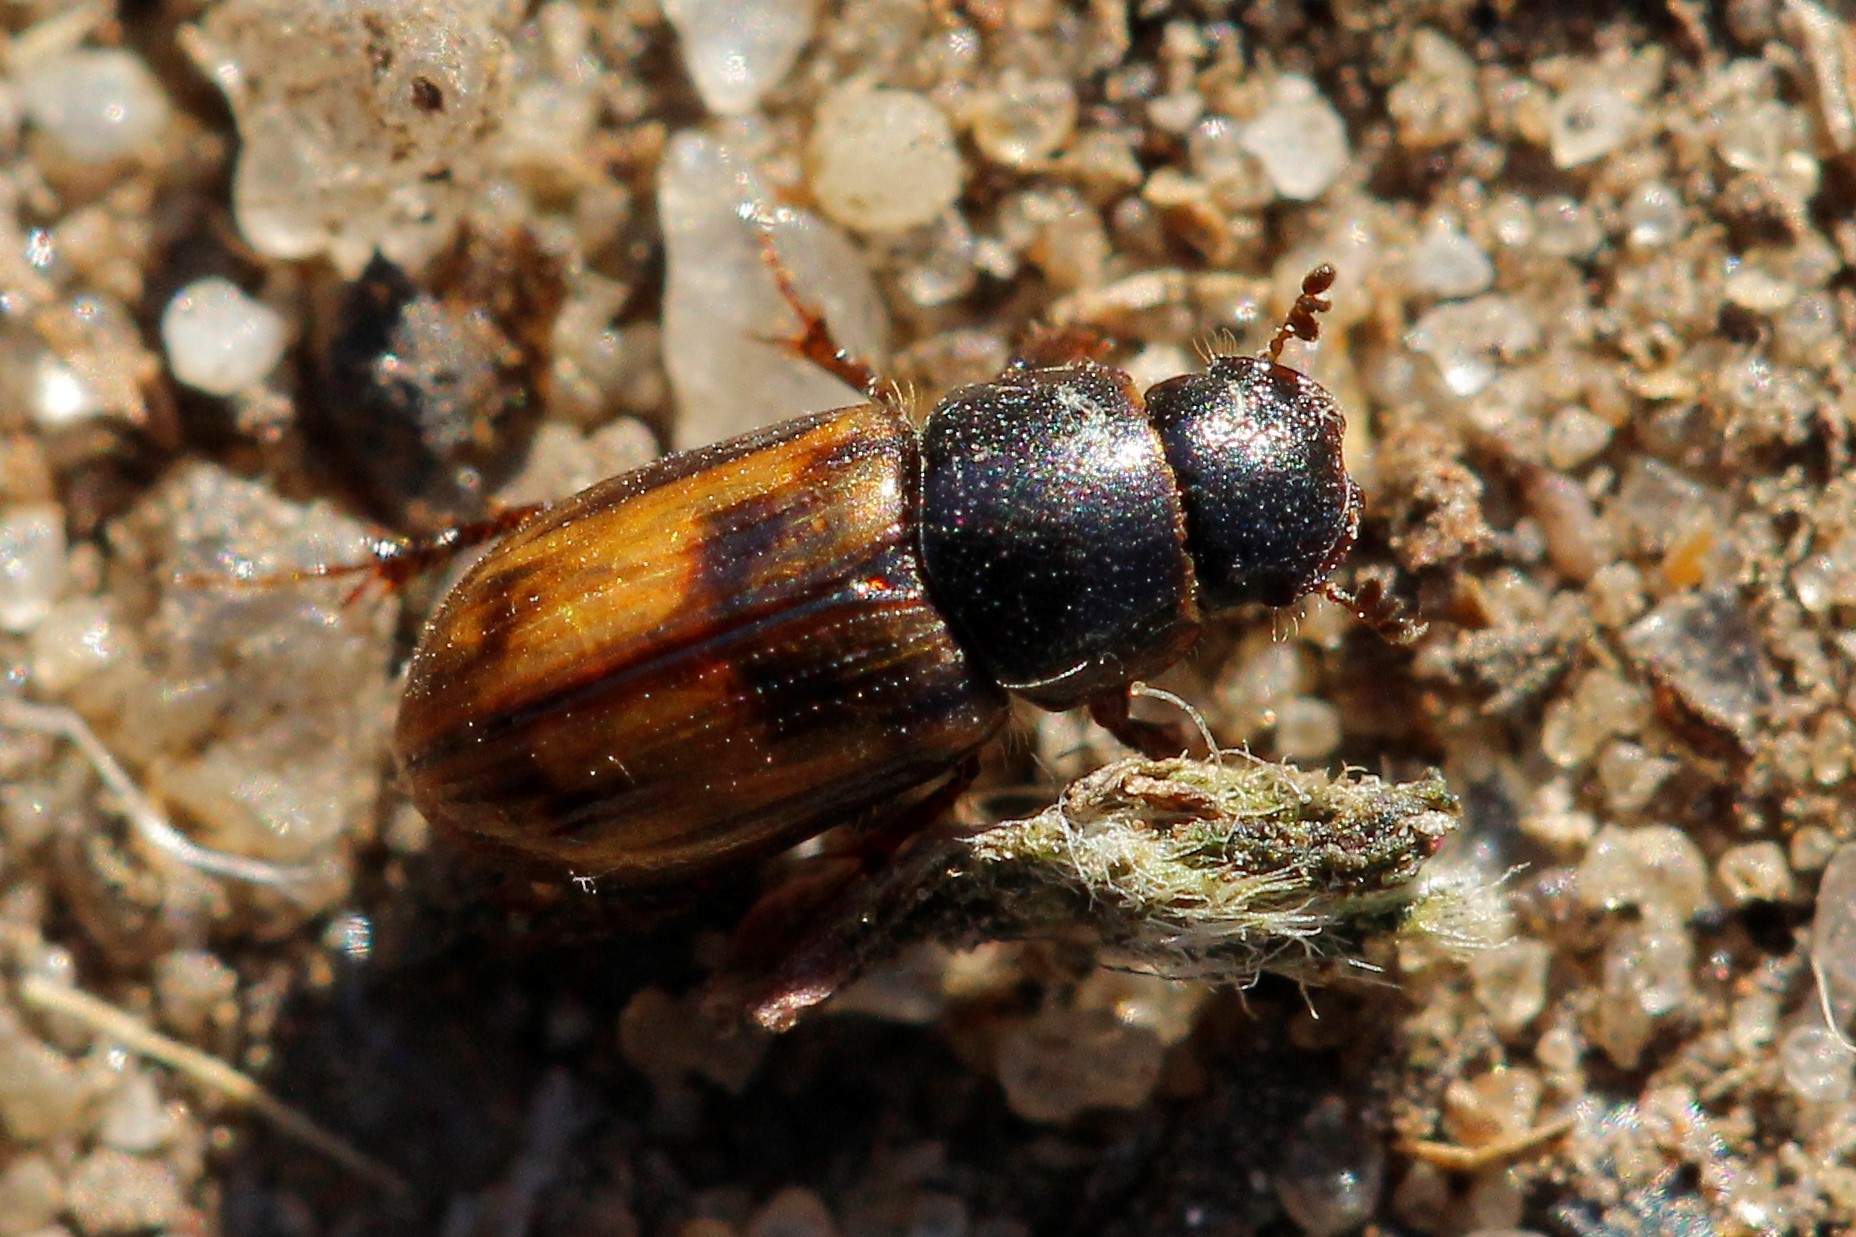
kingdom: Animalia
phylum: Arthropoda
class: Insecta
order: Coleoptera
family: Scarabaeidae
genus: Chilothorax
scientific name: Chilothorax distinctus
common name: Maculated dung beetle
